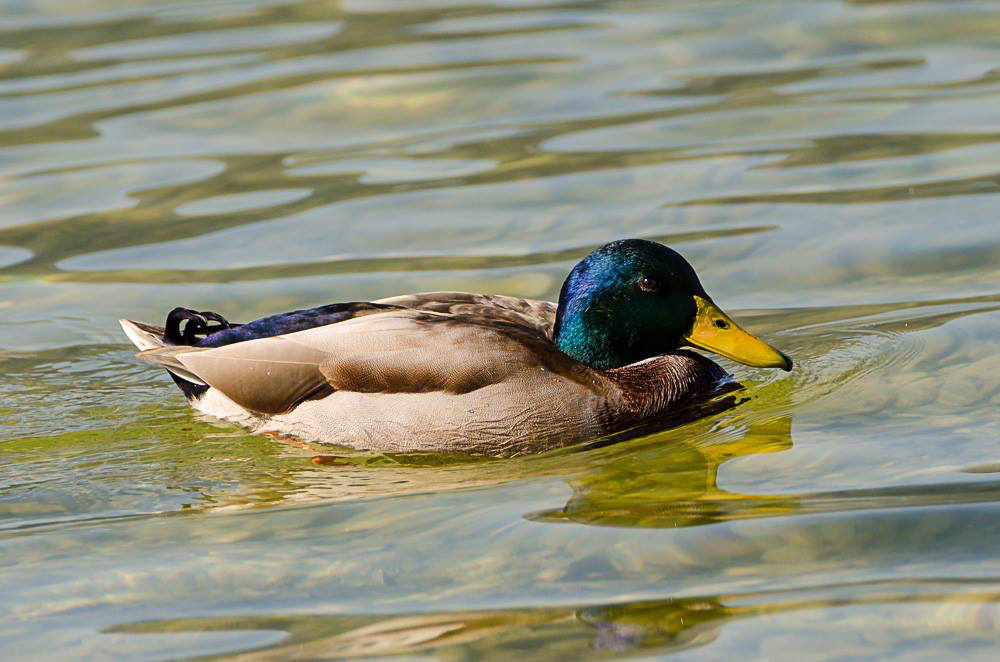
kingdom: Animalia
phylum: Chordata
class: Aves
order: Anseriformes
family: Anatidae
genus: Anas
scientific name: Anas platyrhynchos
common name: Mallard
